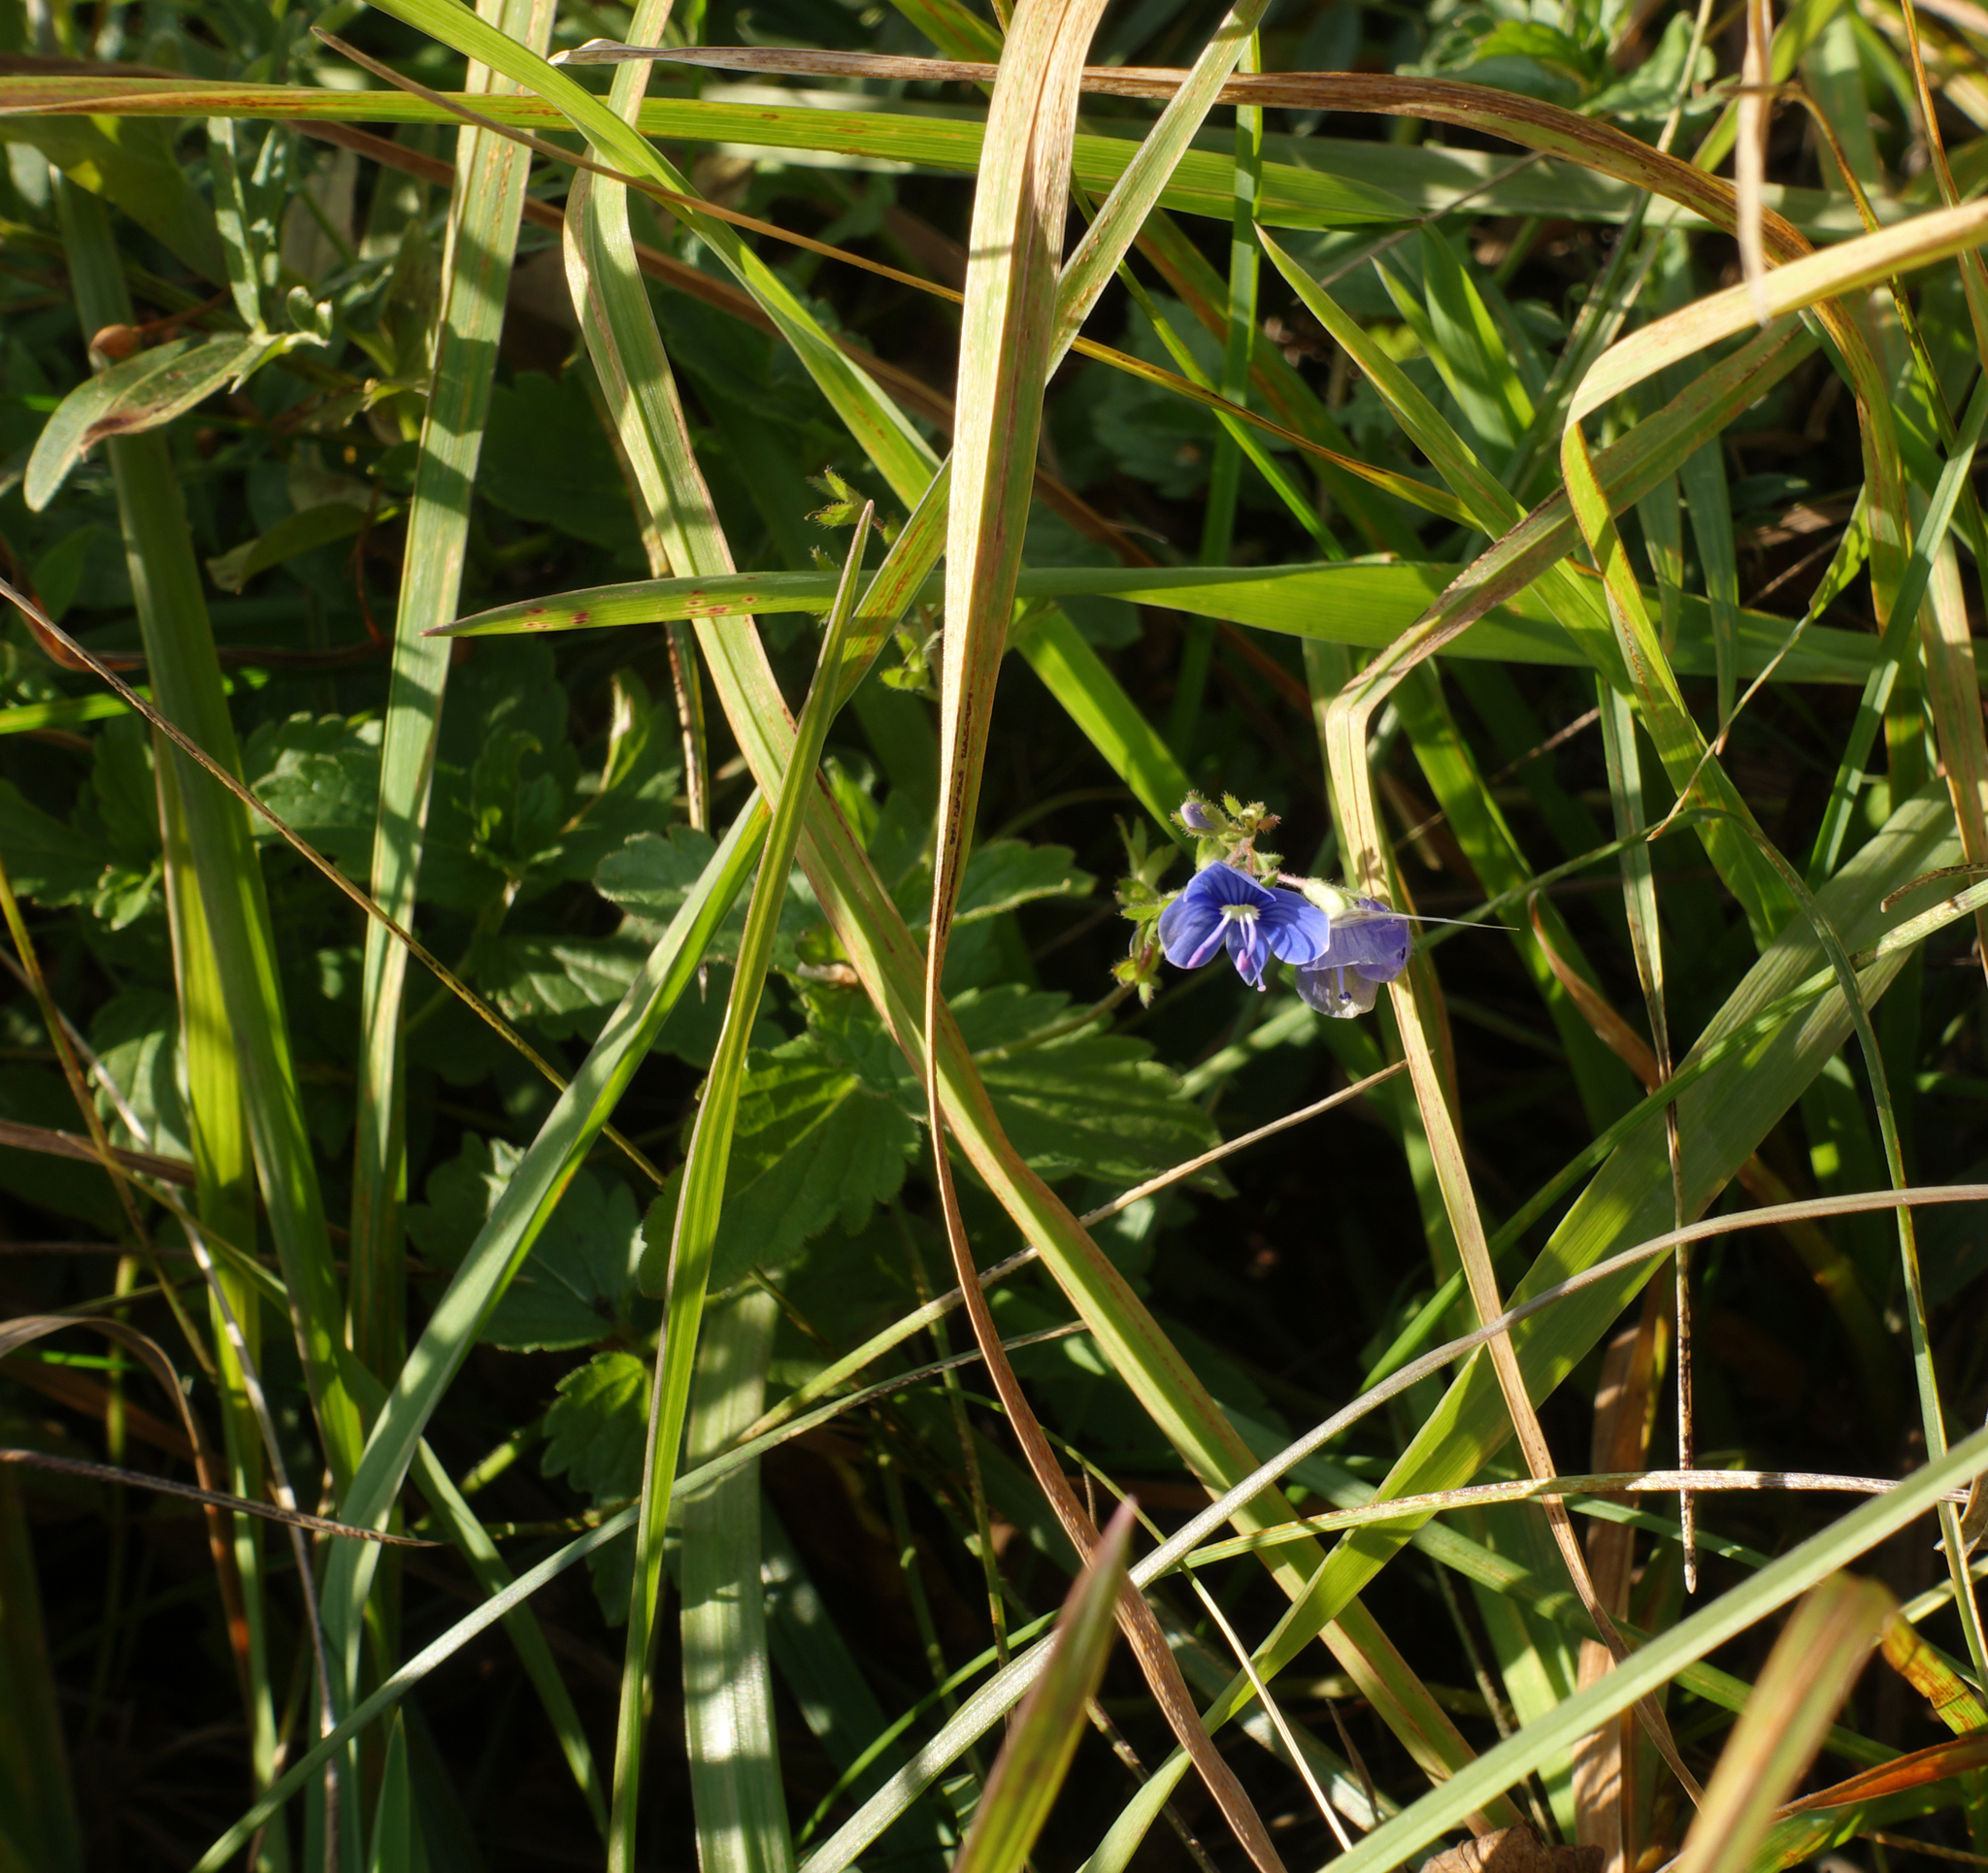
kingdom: Plantae
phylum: Tracheophyta
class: Magnoliopsida
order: Lamiales
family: Plantaginaceae
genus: Veronica
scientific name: Veronica chamaedrys
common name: Germander speedwell
